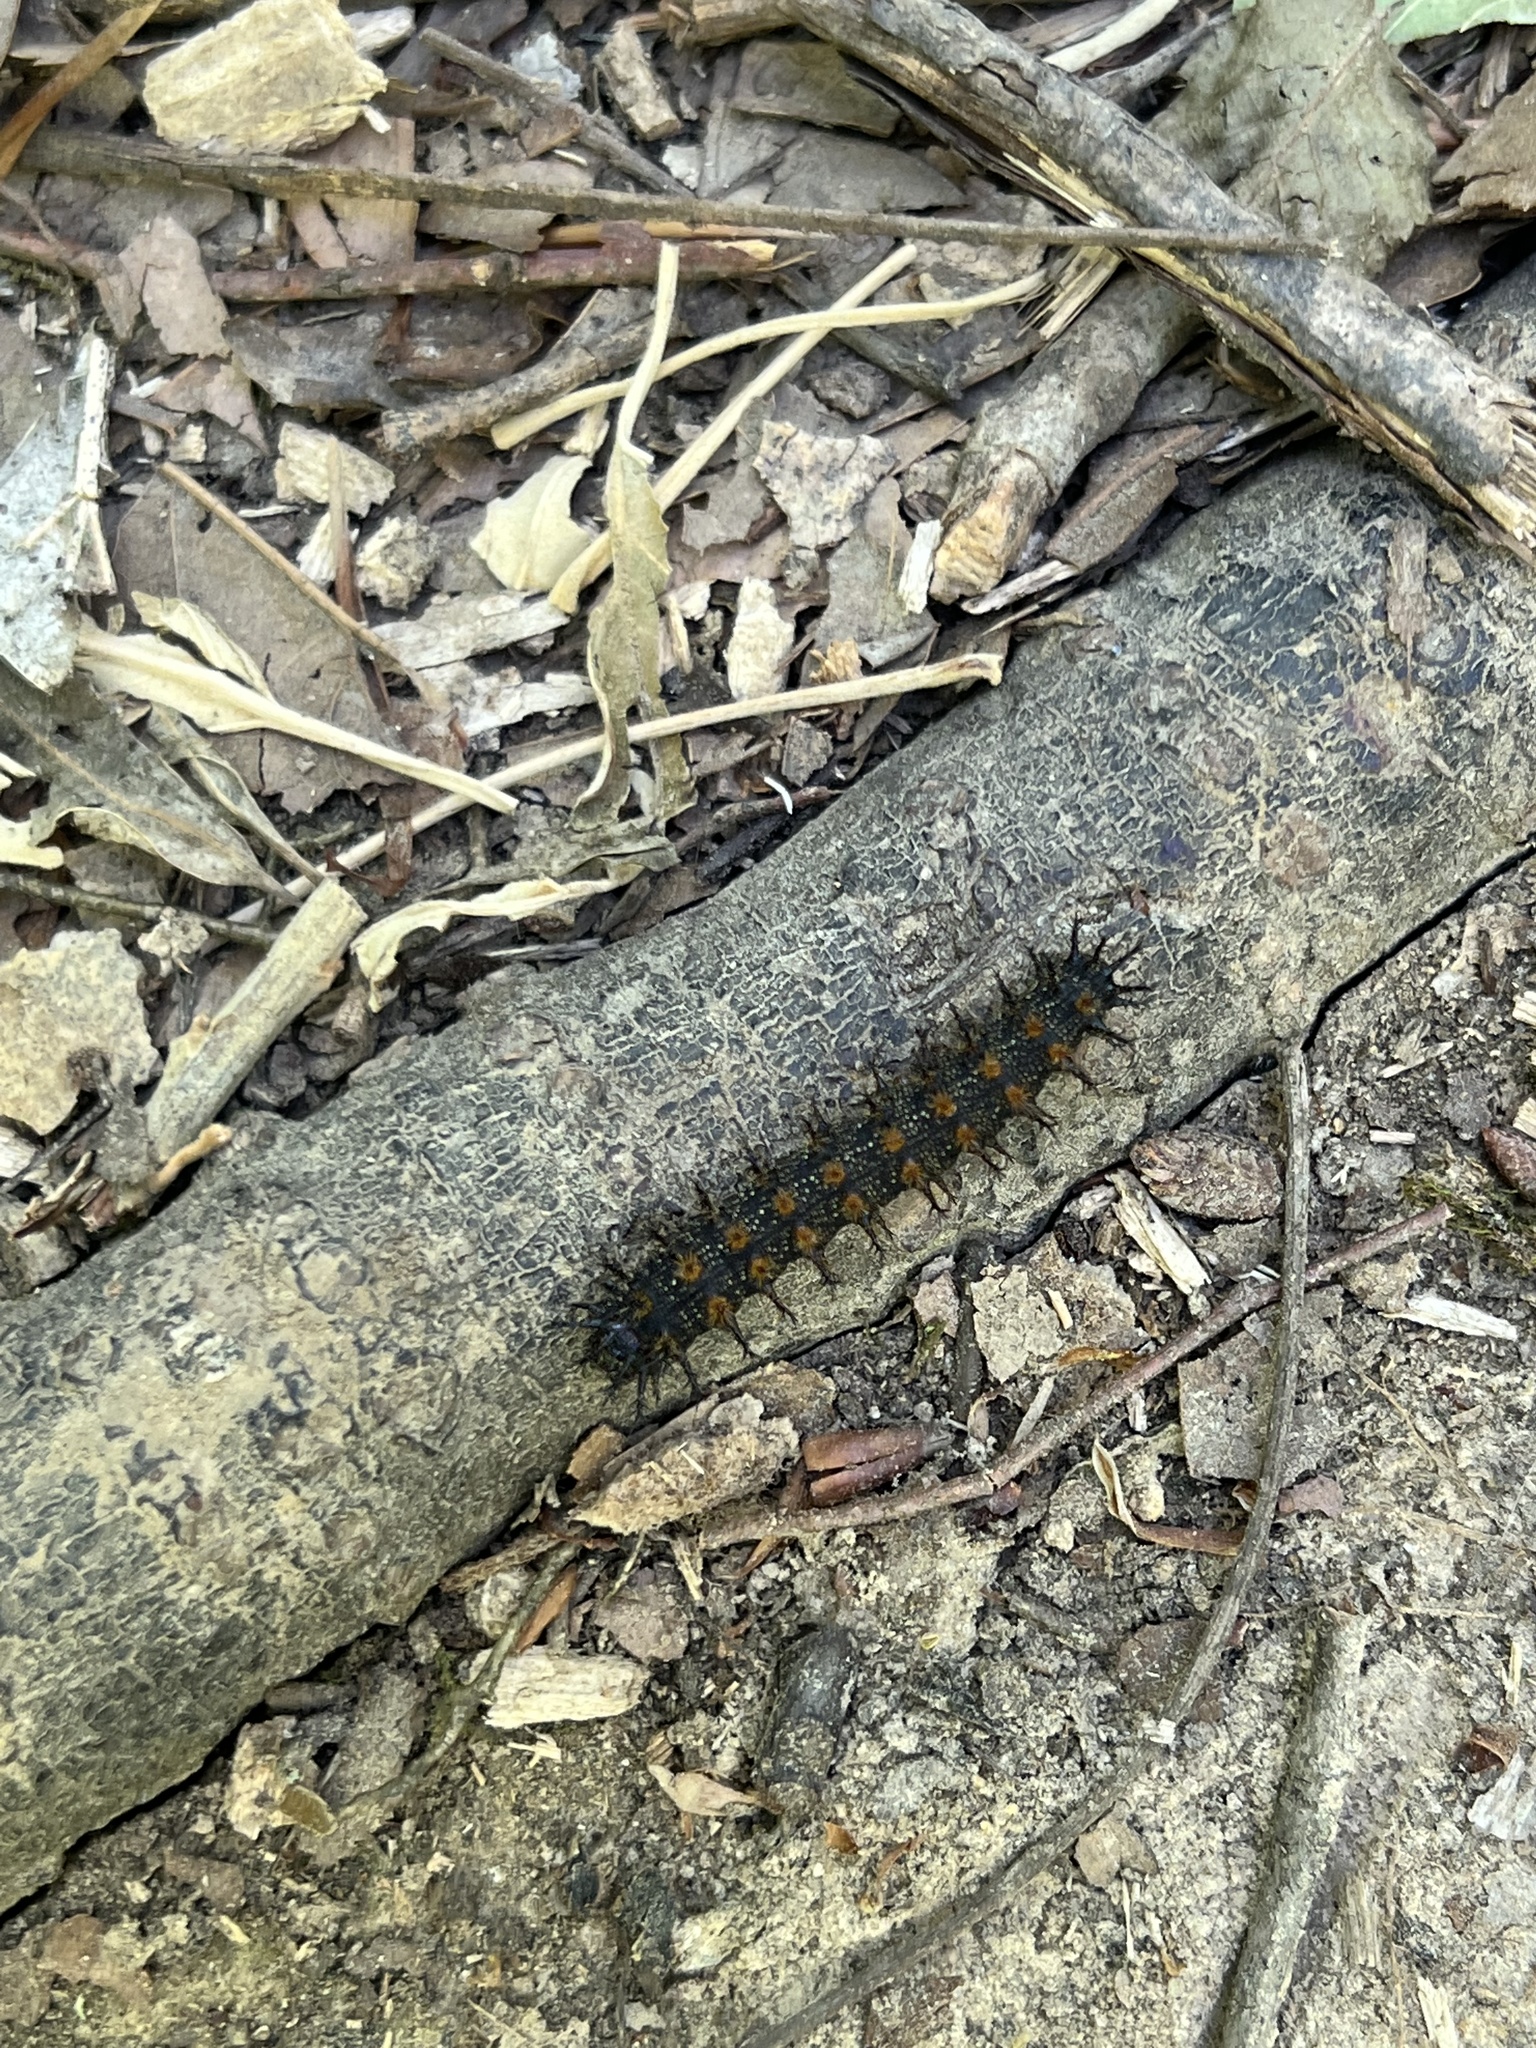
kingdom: Animalia
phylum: Arthropoda
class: Insecta
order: Lepidoptera
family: Saturniidae
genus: Hemileuca
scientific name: Hemileuca maia
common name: Eastern buckmoth
